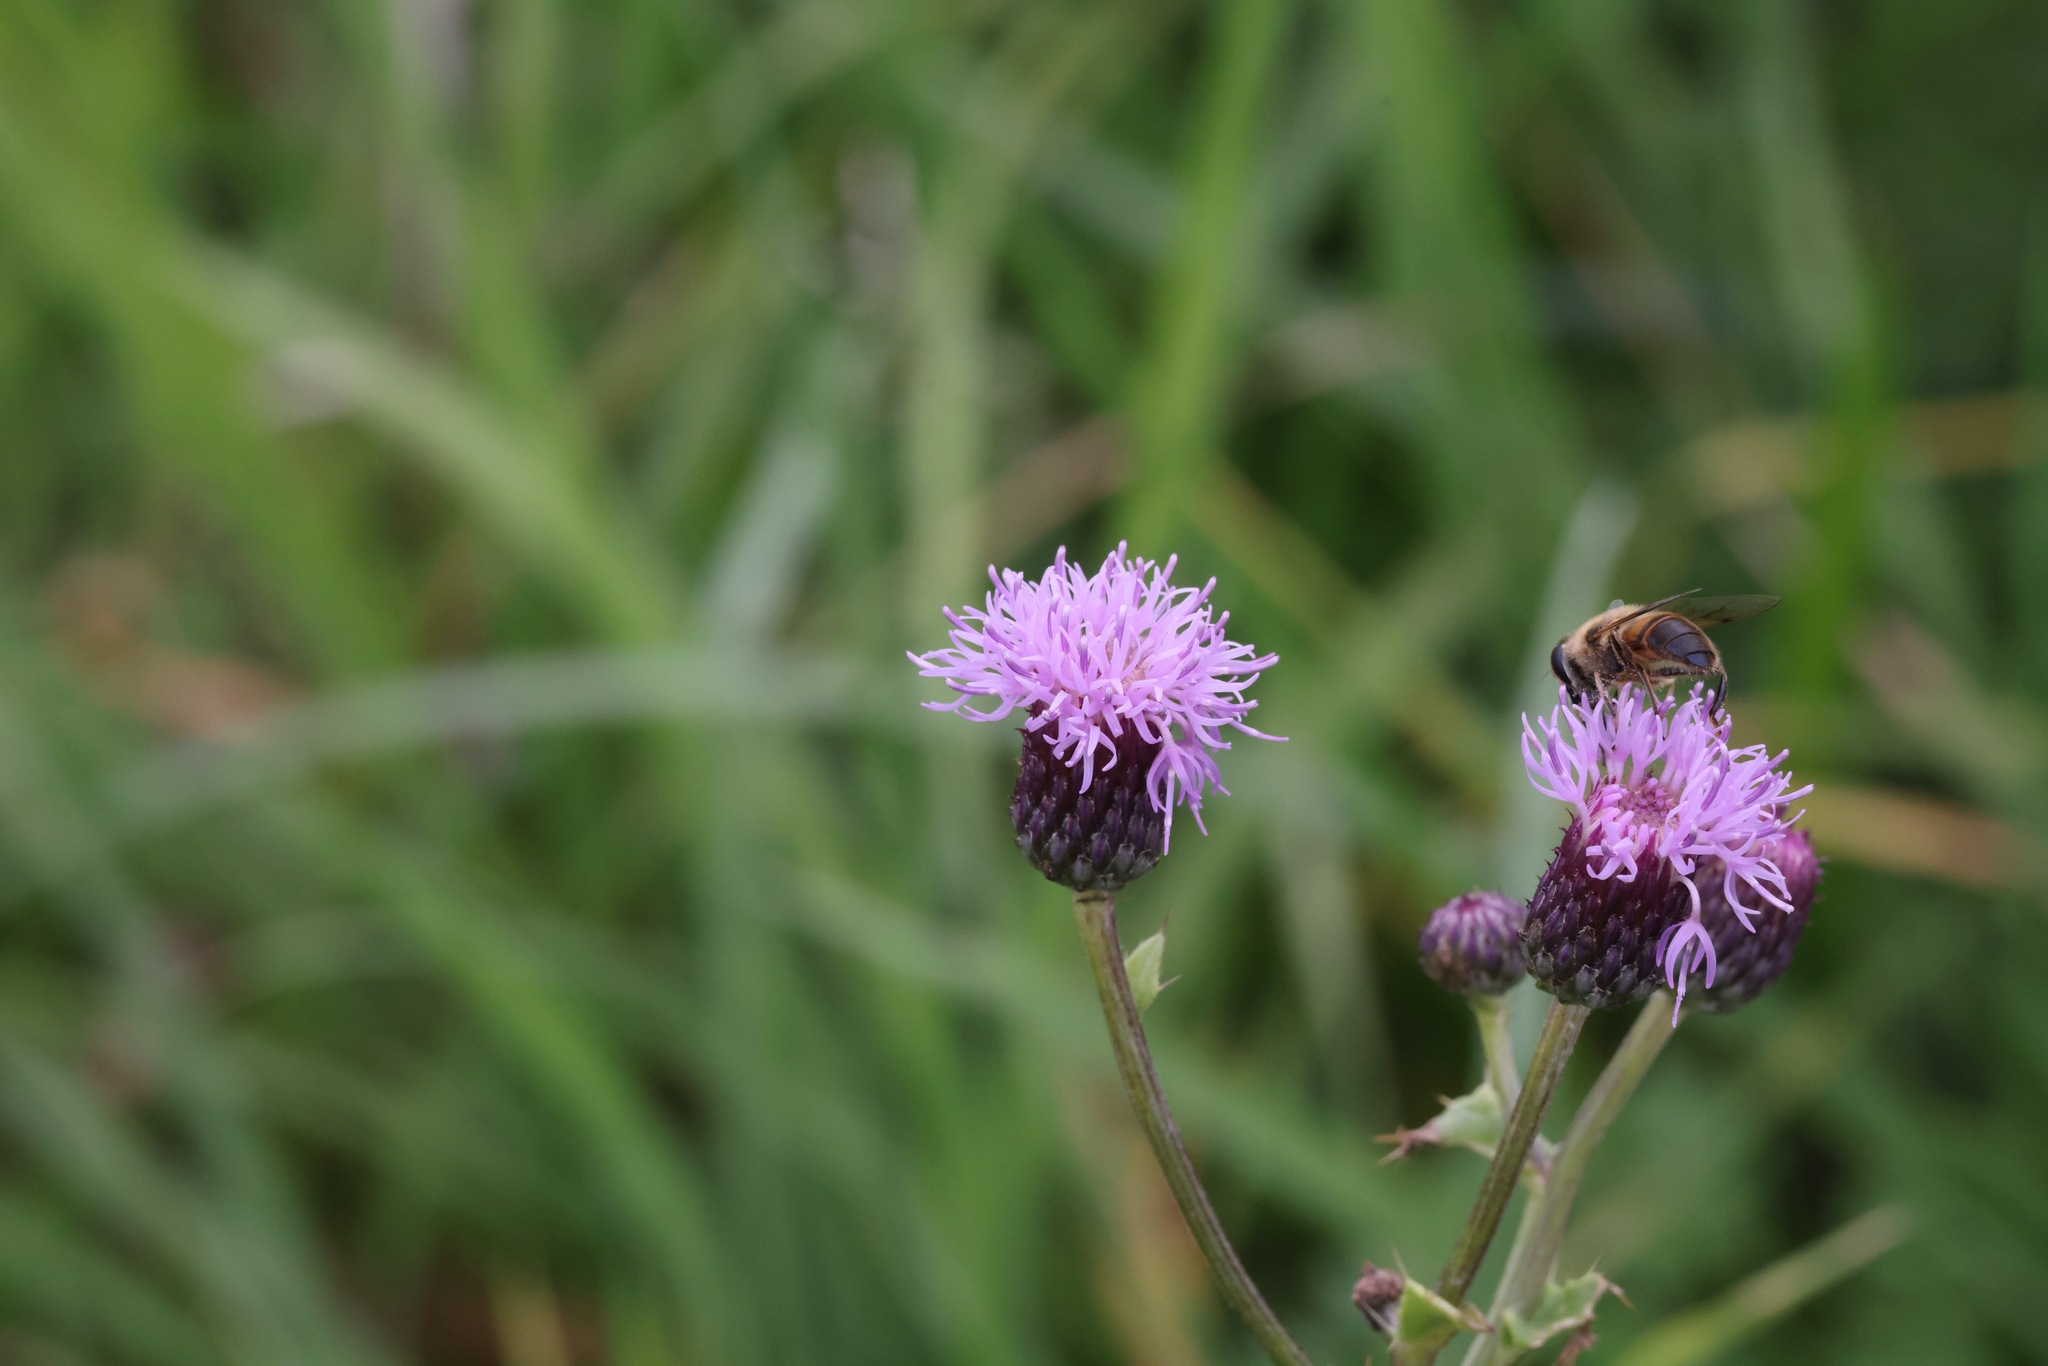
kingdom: Plantae
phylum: Tracheophyta
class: Magnoliopsida
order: Asterales
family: Asteraceae
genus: Cirsium
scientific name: Cirsium arvense
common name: Creeping thistle
